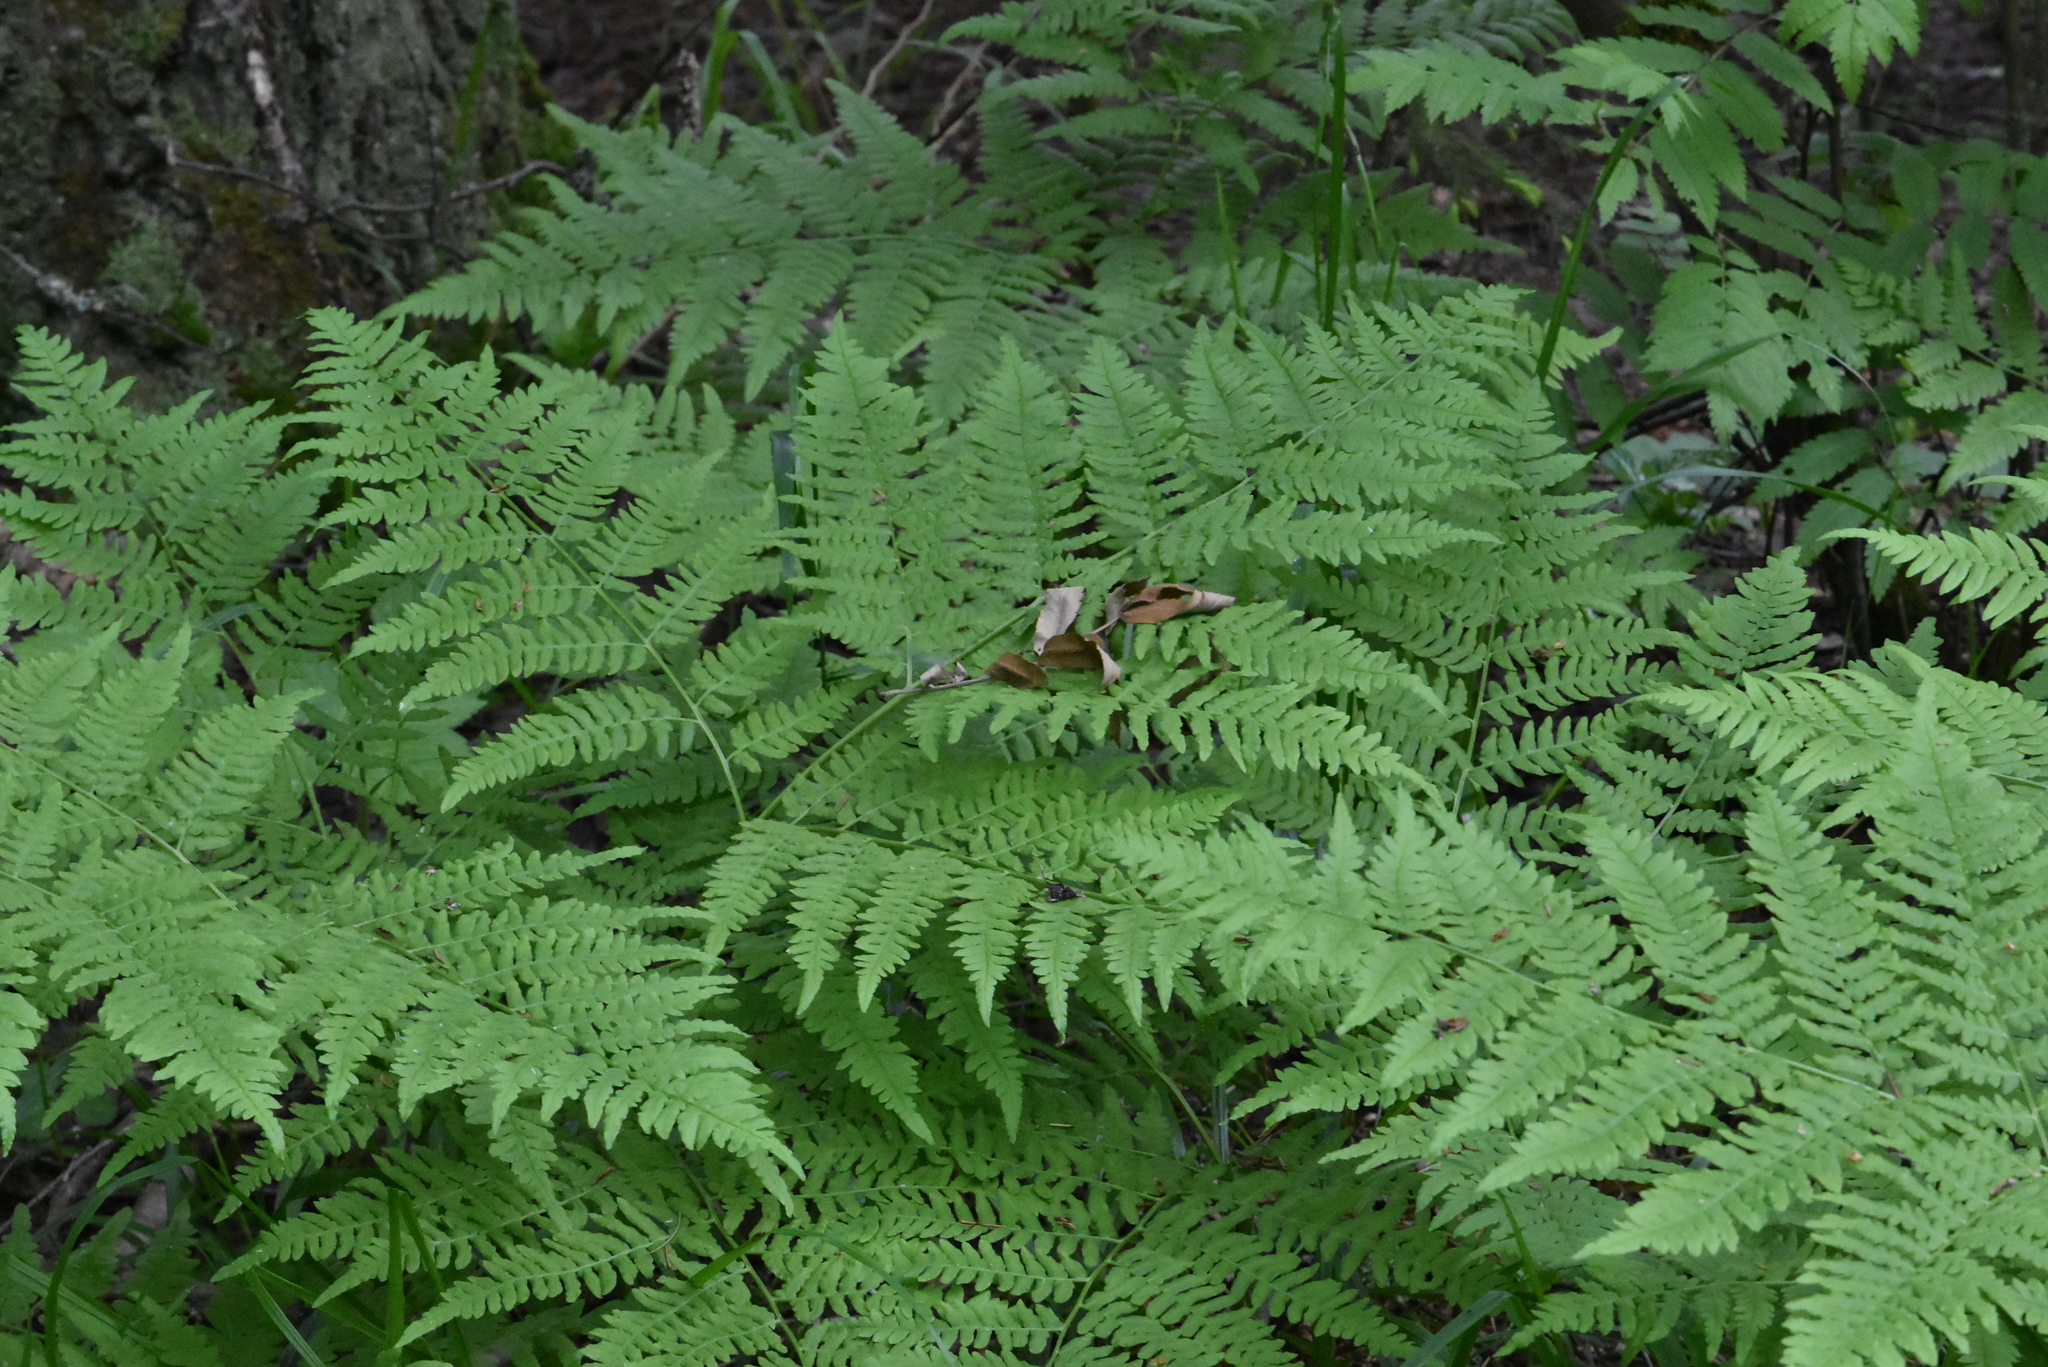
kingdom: Plantae
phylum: Tracheophyta
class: Polypodiopsida
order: Polypodiales
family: Dennstaedtiaceae
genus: Pteridium
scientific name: Pteridium aquilinum
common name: Bracken
